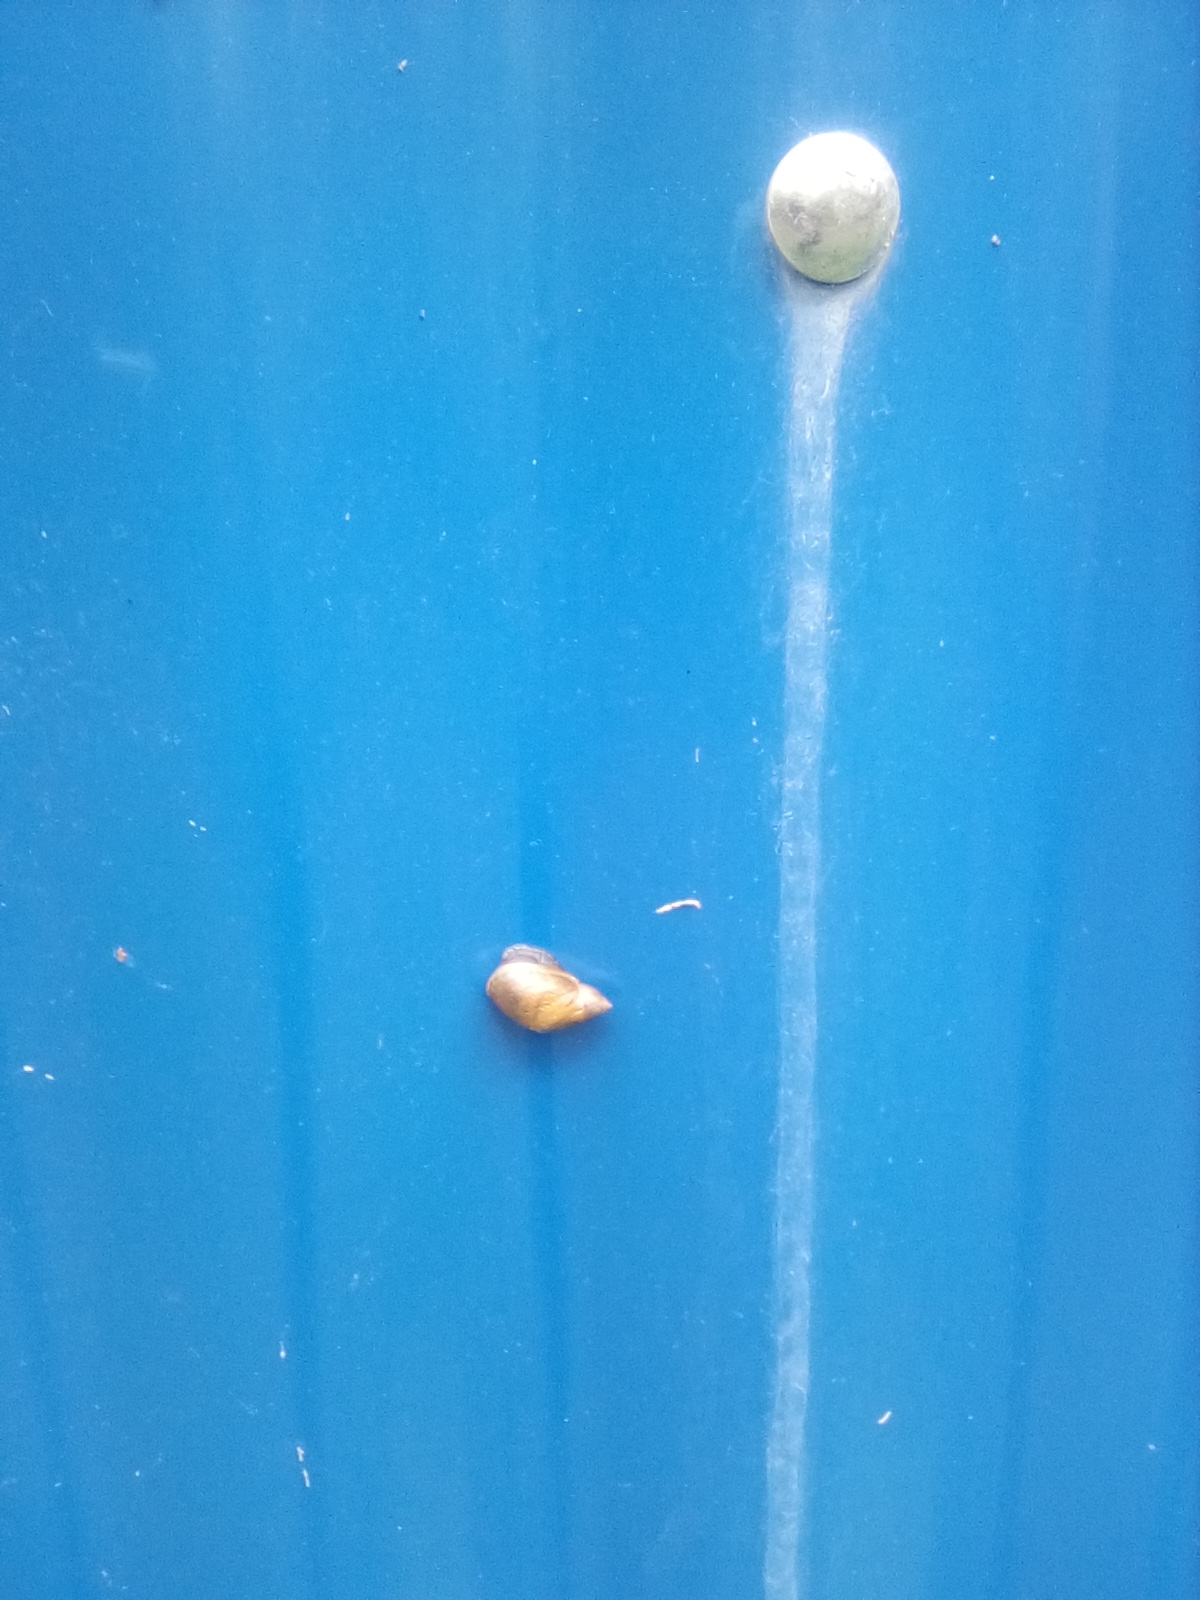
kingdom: Animalia
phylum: Mollusca
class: Gastropoda
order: Stylommatophora
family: Succineidae
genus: Succinea
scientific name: Succinea putris
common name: European ambersnail
